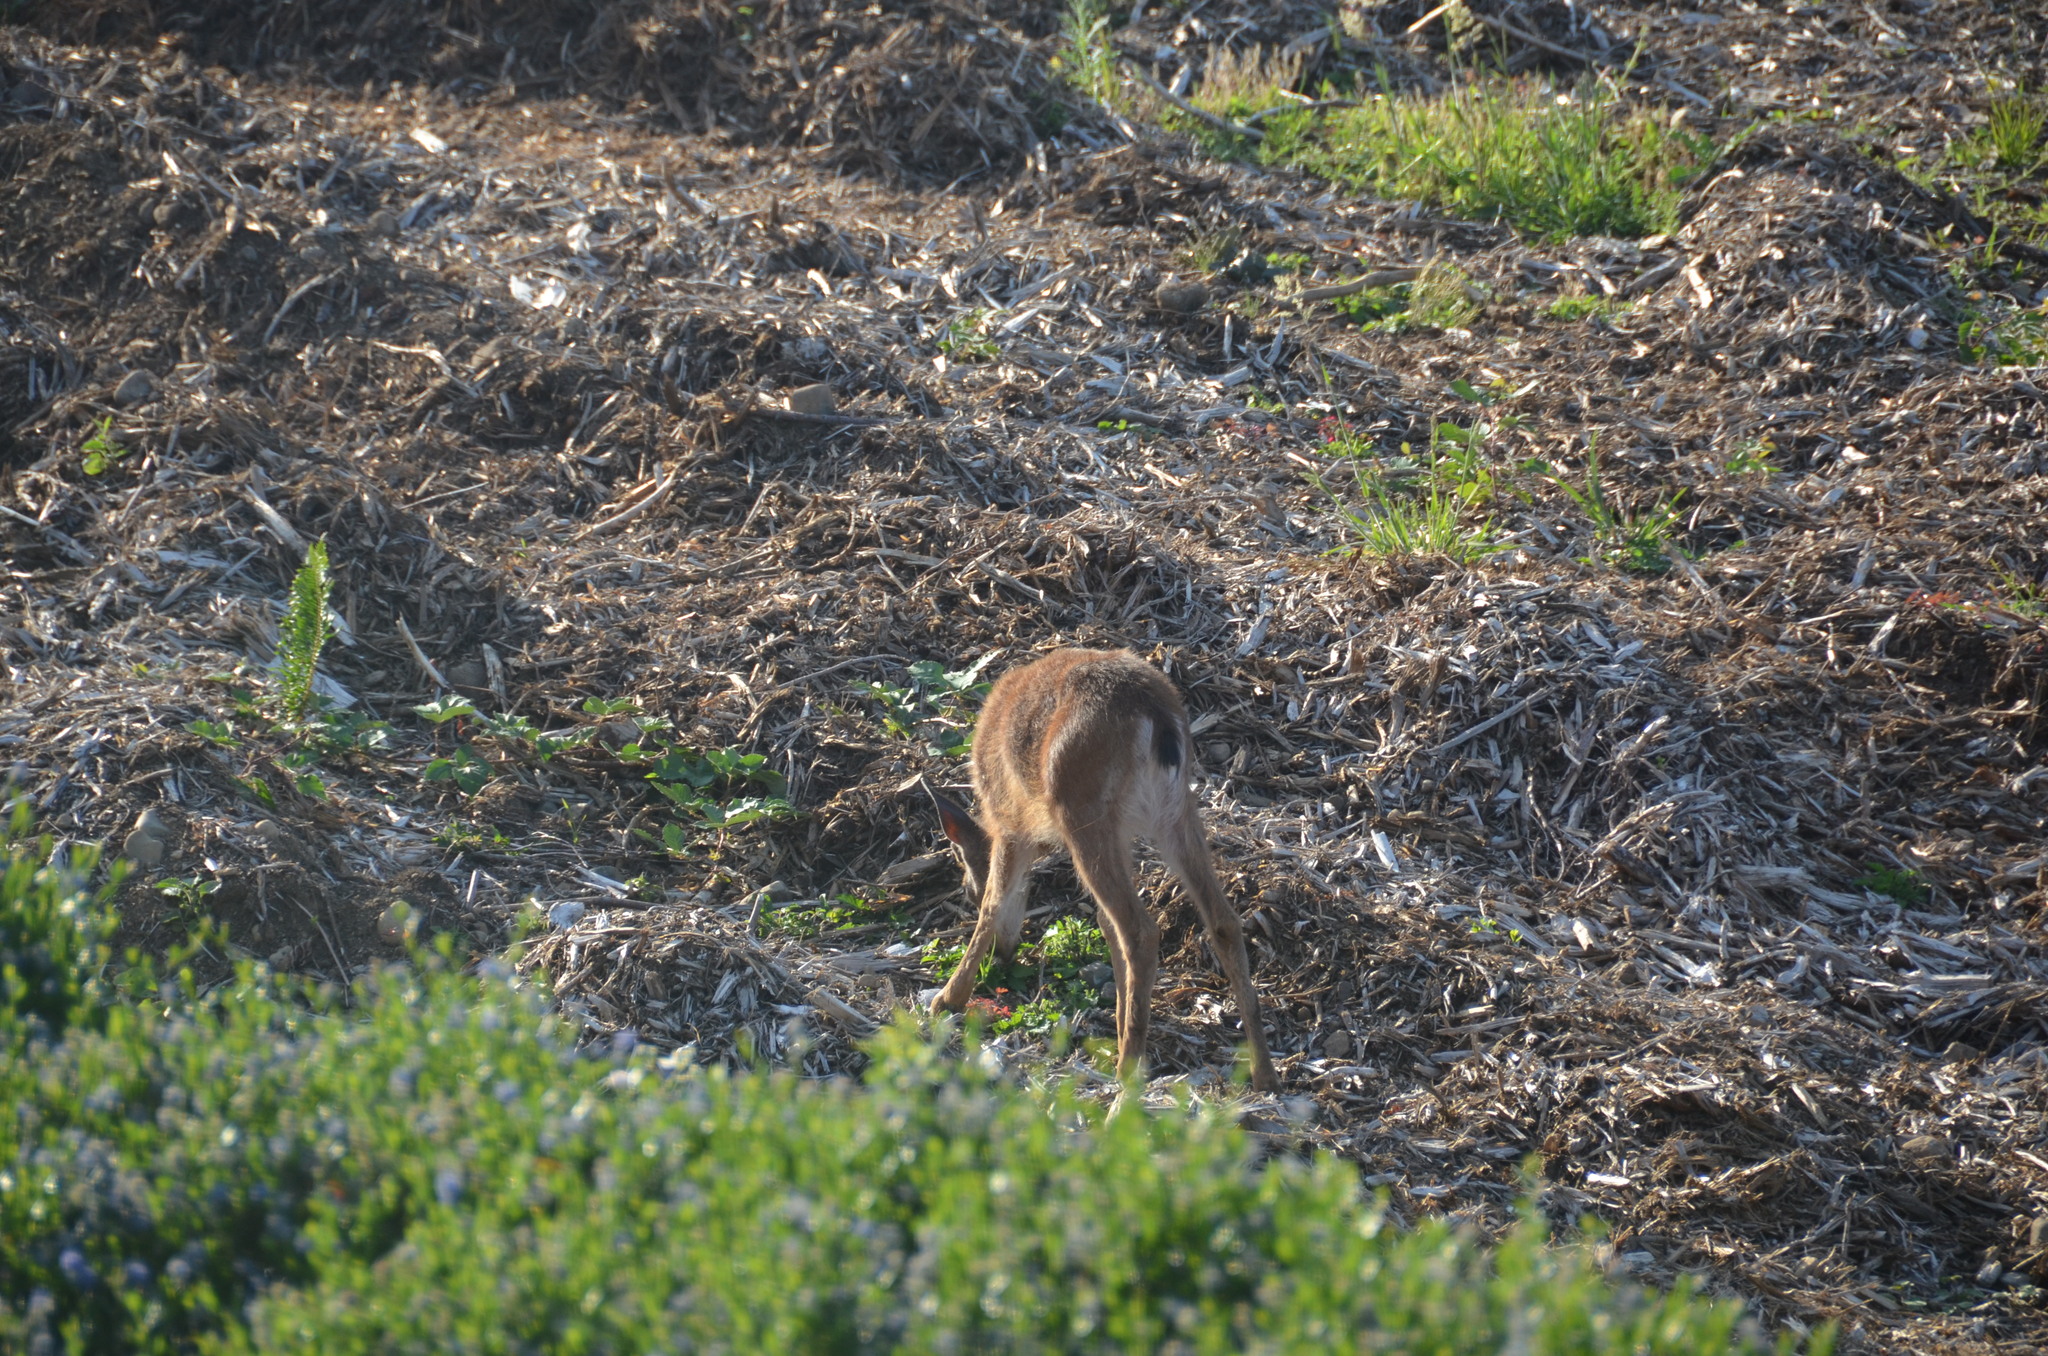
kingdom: Animalia
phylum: Chordata
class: Mammalia
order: Artiodactyla
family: Cervidae
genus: Odocoileus
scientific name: Odocoileus hemionus
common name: Mule deer
